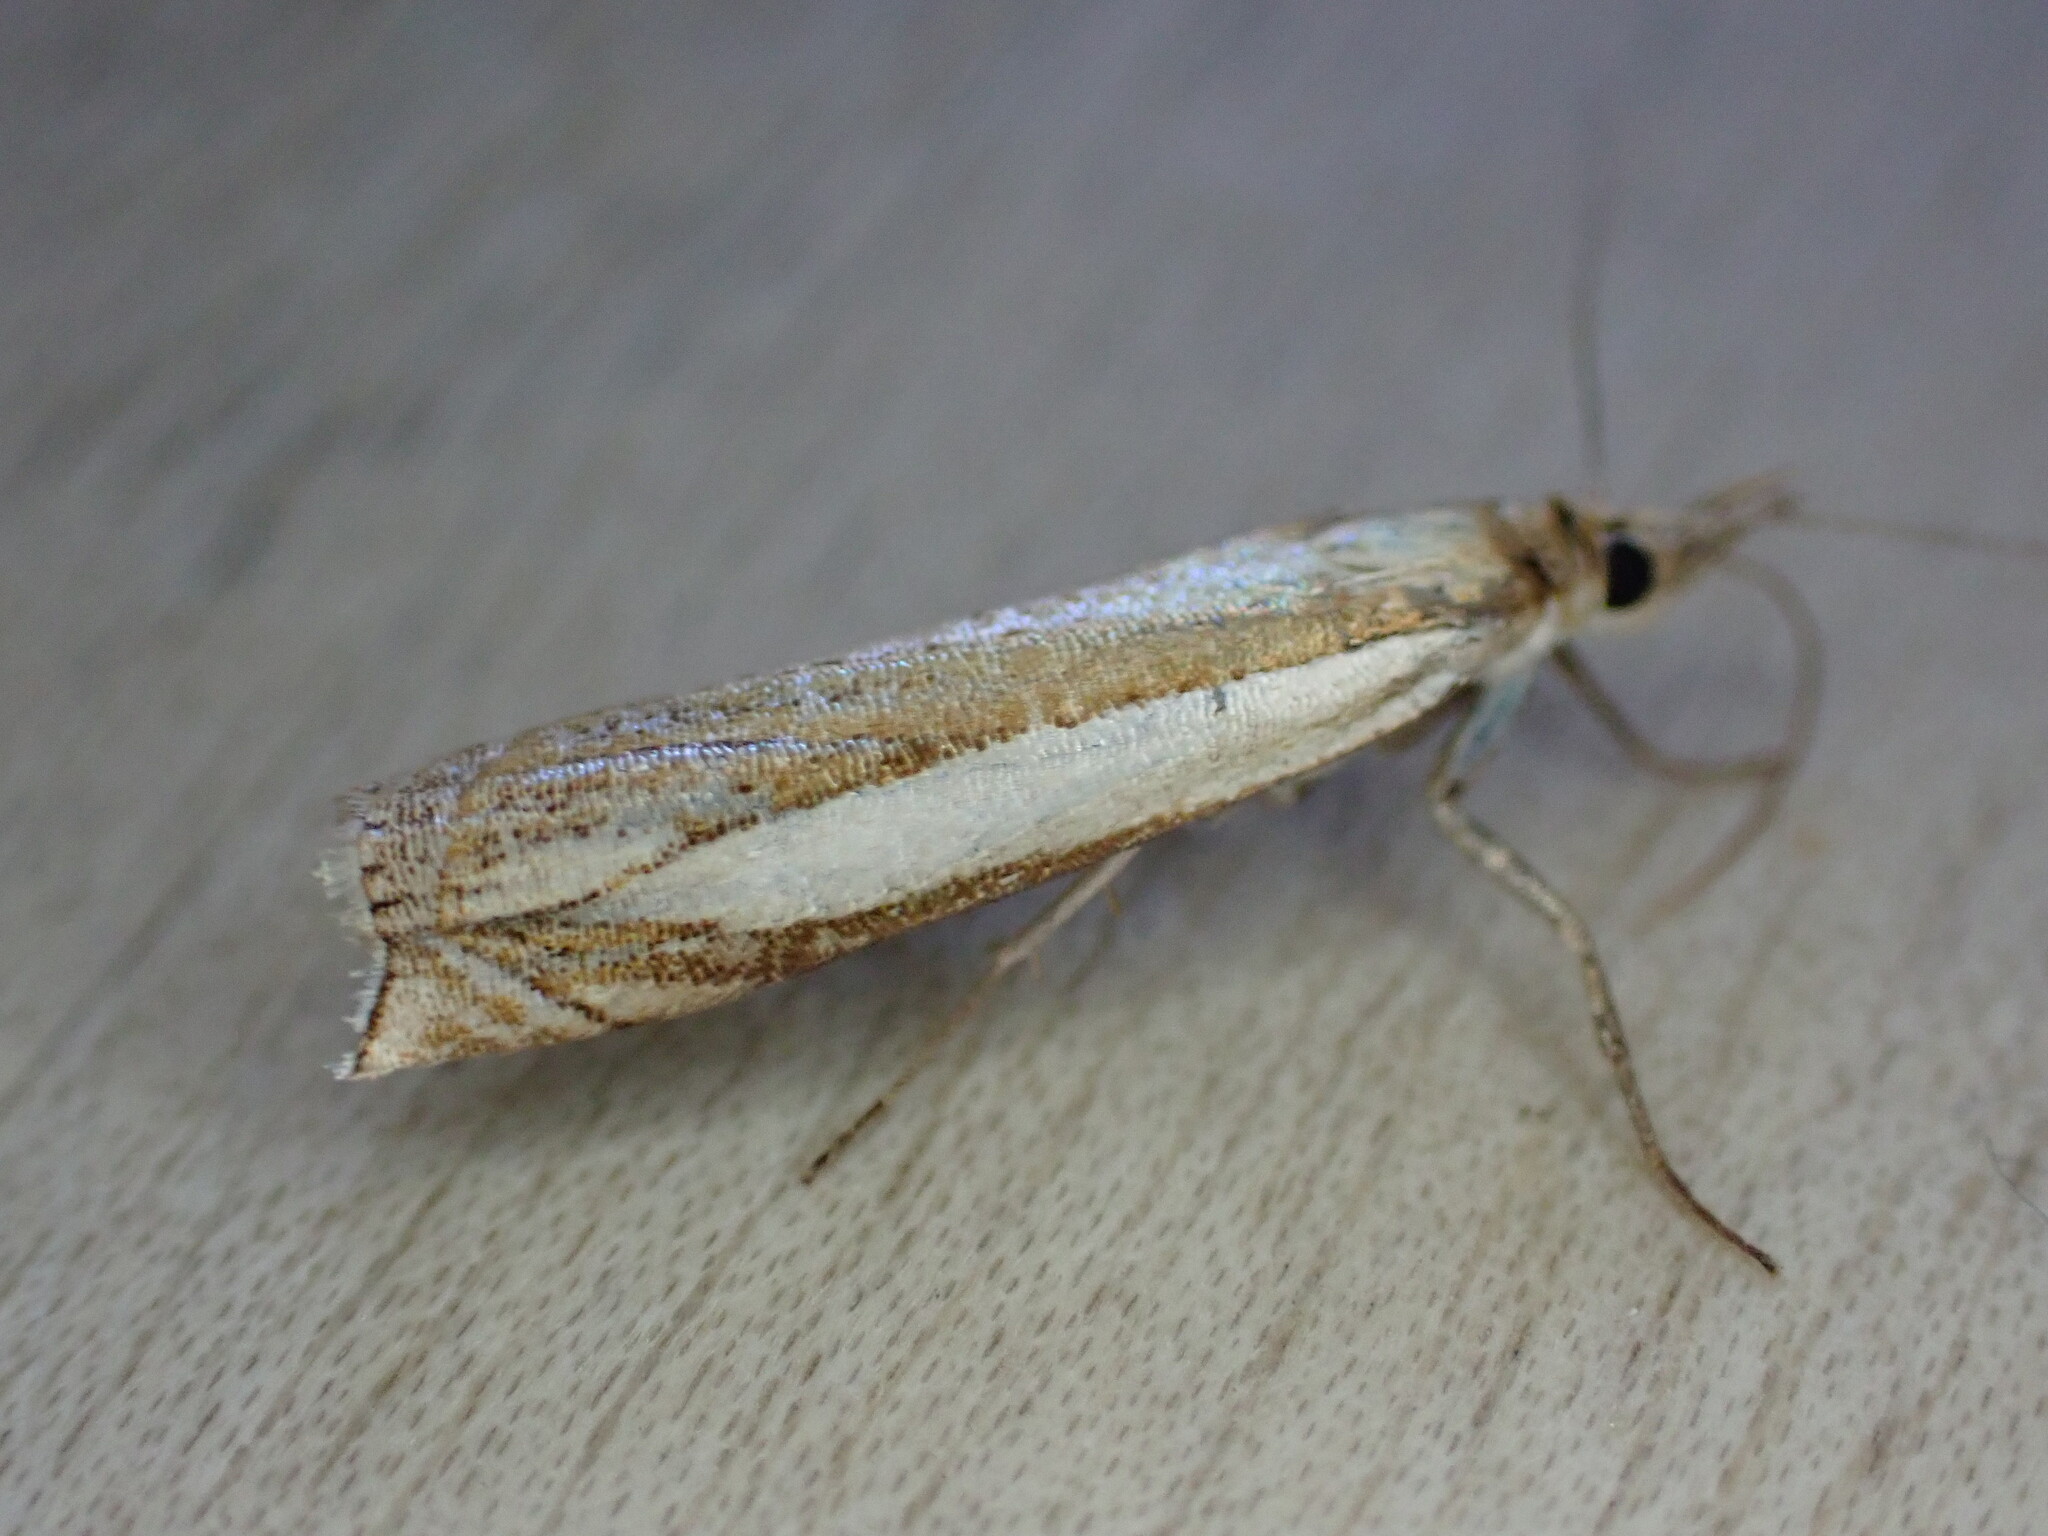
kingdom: Animalia
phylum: Arthropoda
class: Insecta
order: Lepidoptera
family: Crambidae
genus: Crambus
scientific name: Crambus pascuella
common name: Inlaid grass-veneer
